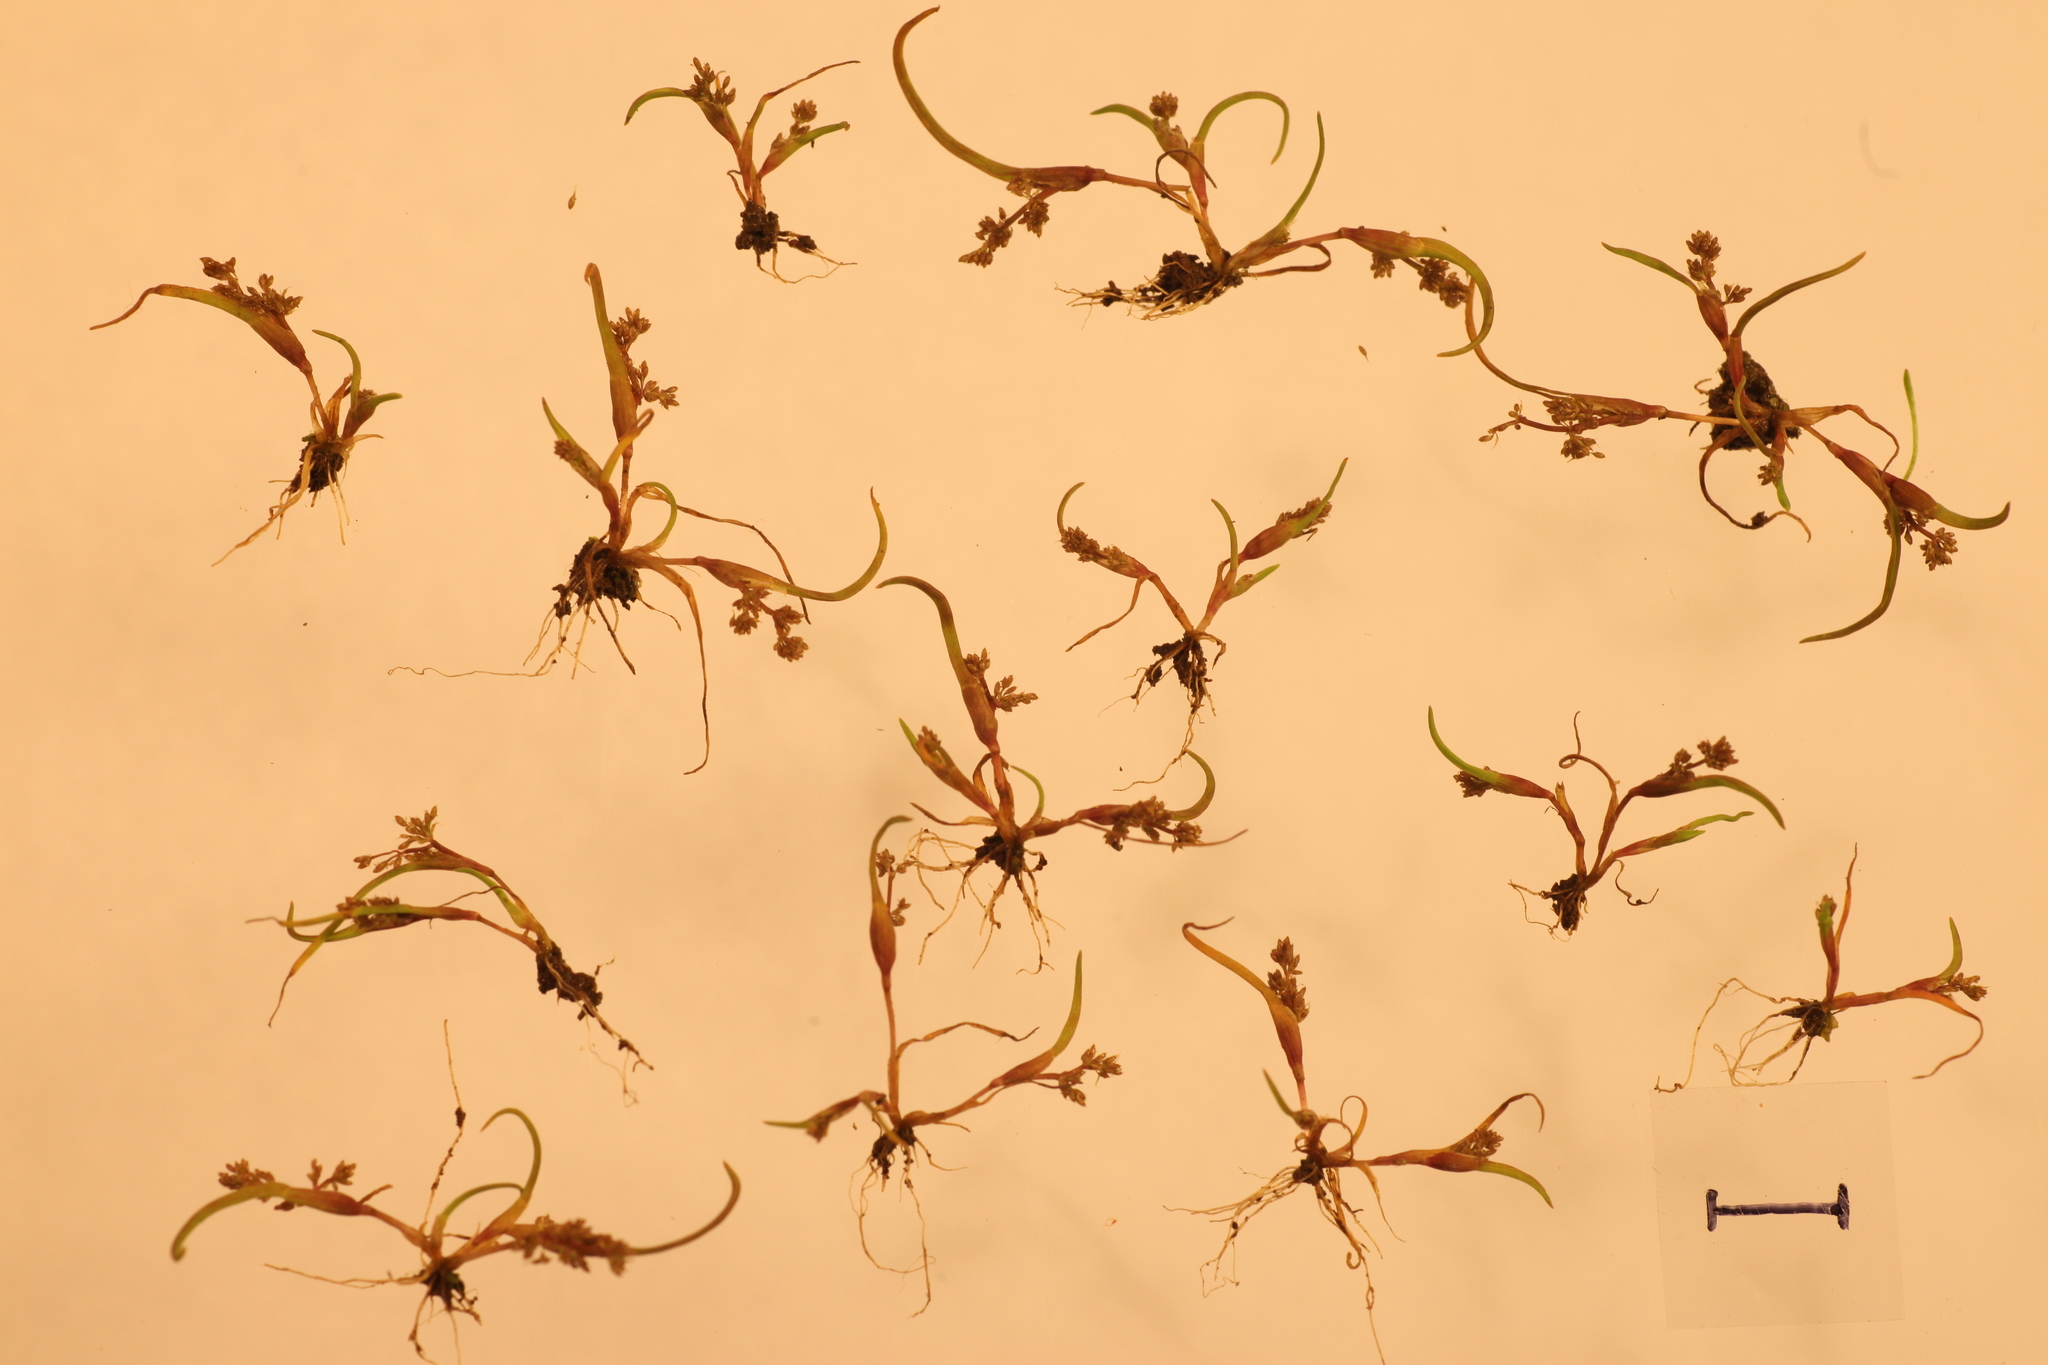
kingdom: Plantae
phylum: Tracheophyta
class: Liliopsida
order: Poales
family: Poaceae
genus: Coleanthus
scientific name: Coleanthus subtilis
